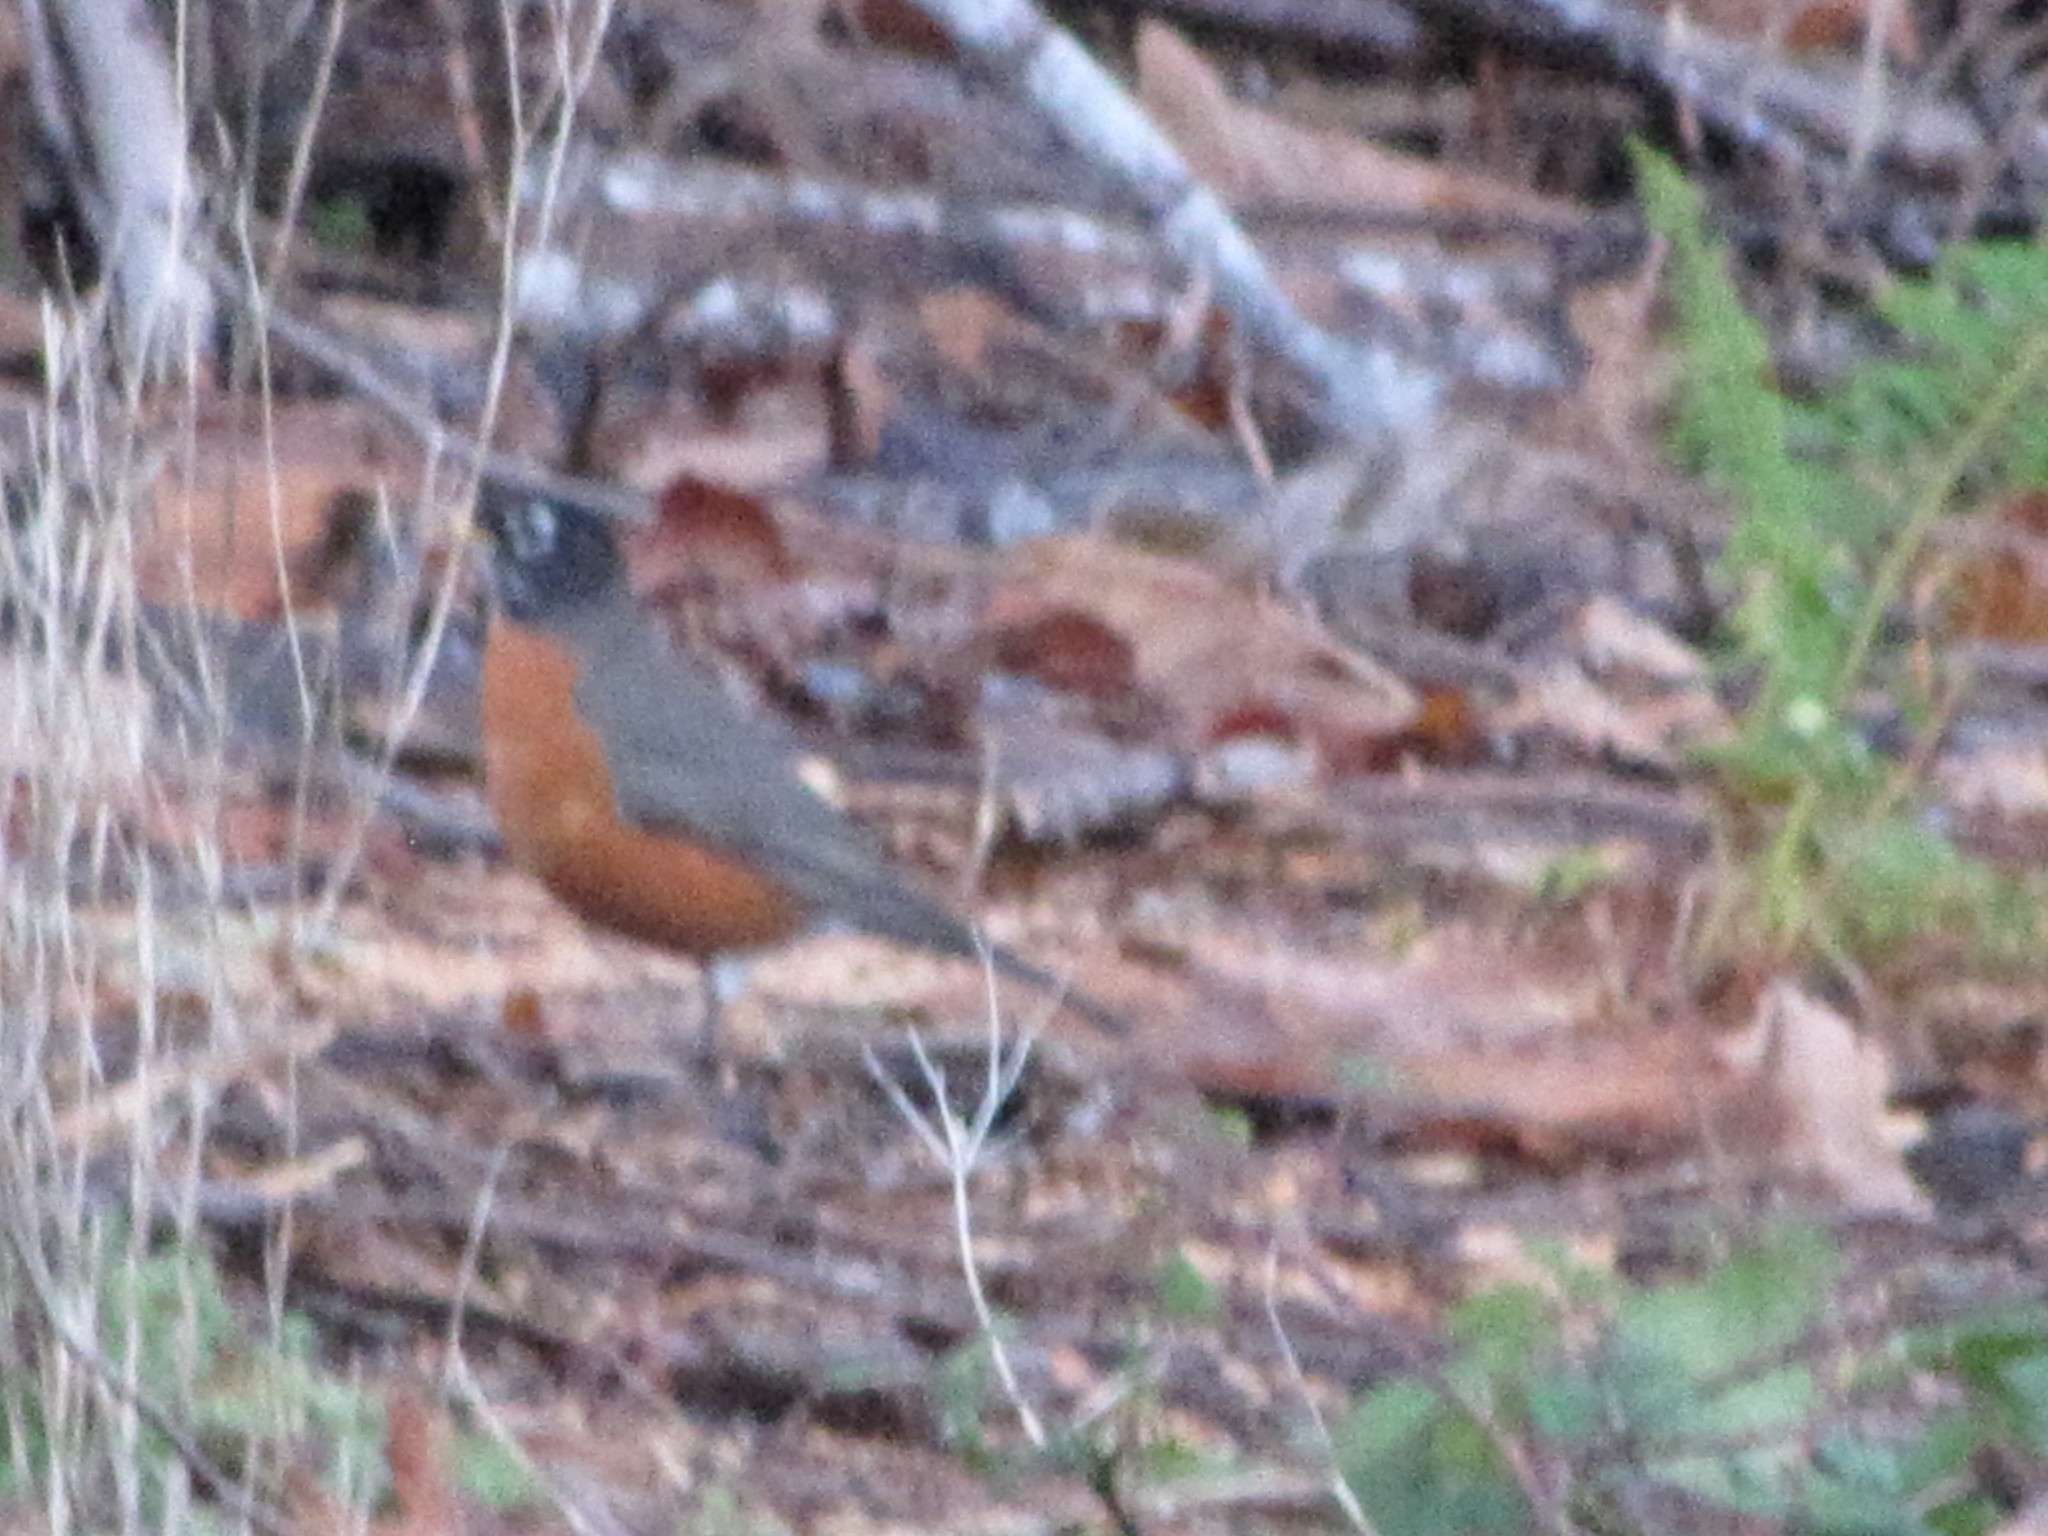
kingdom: Animalia
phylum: Chordata
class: Aves
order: Passeriformes
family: Turdidae
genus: Turdus
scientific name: Turdus migratorius
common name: American robin
